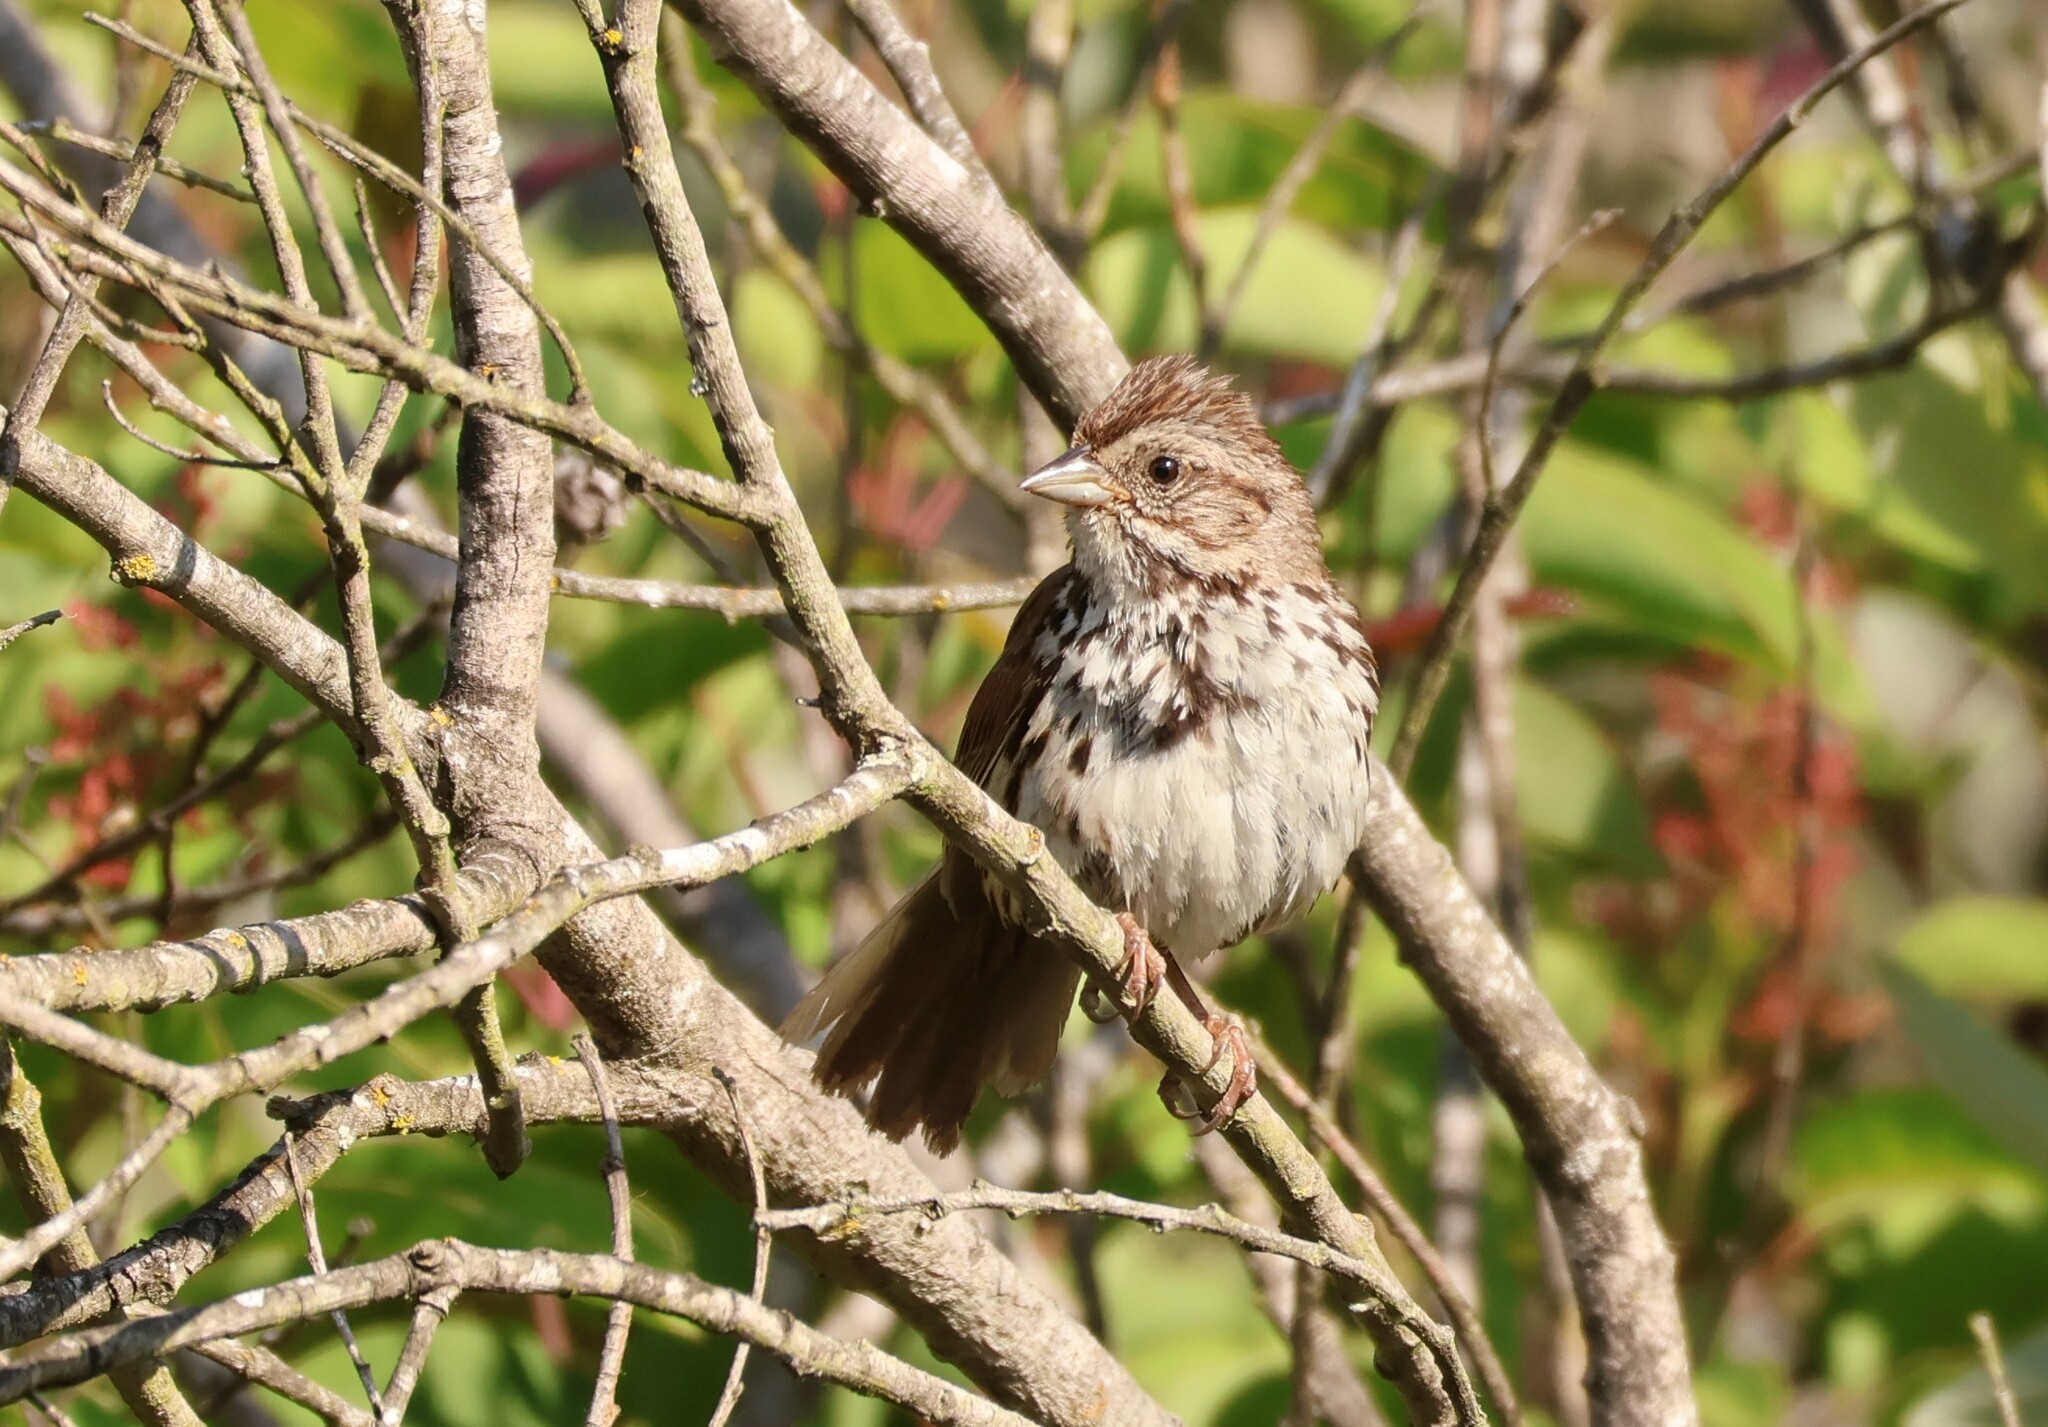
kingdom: Animalia
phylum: Chordata
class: Aves
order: Passeriformes
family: Passerellidae
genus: Melospiza
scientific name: Melospiza melodia
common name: Song sparrow
